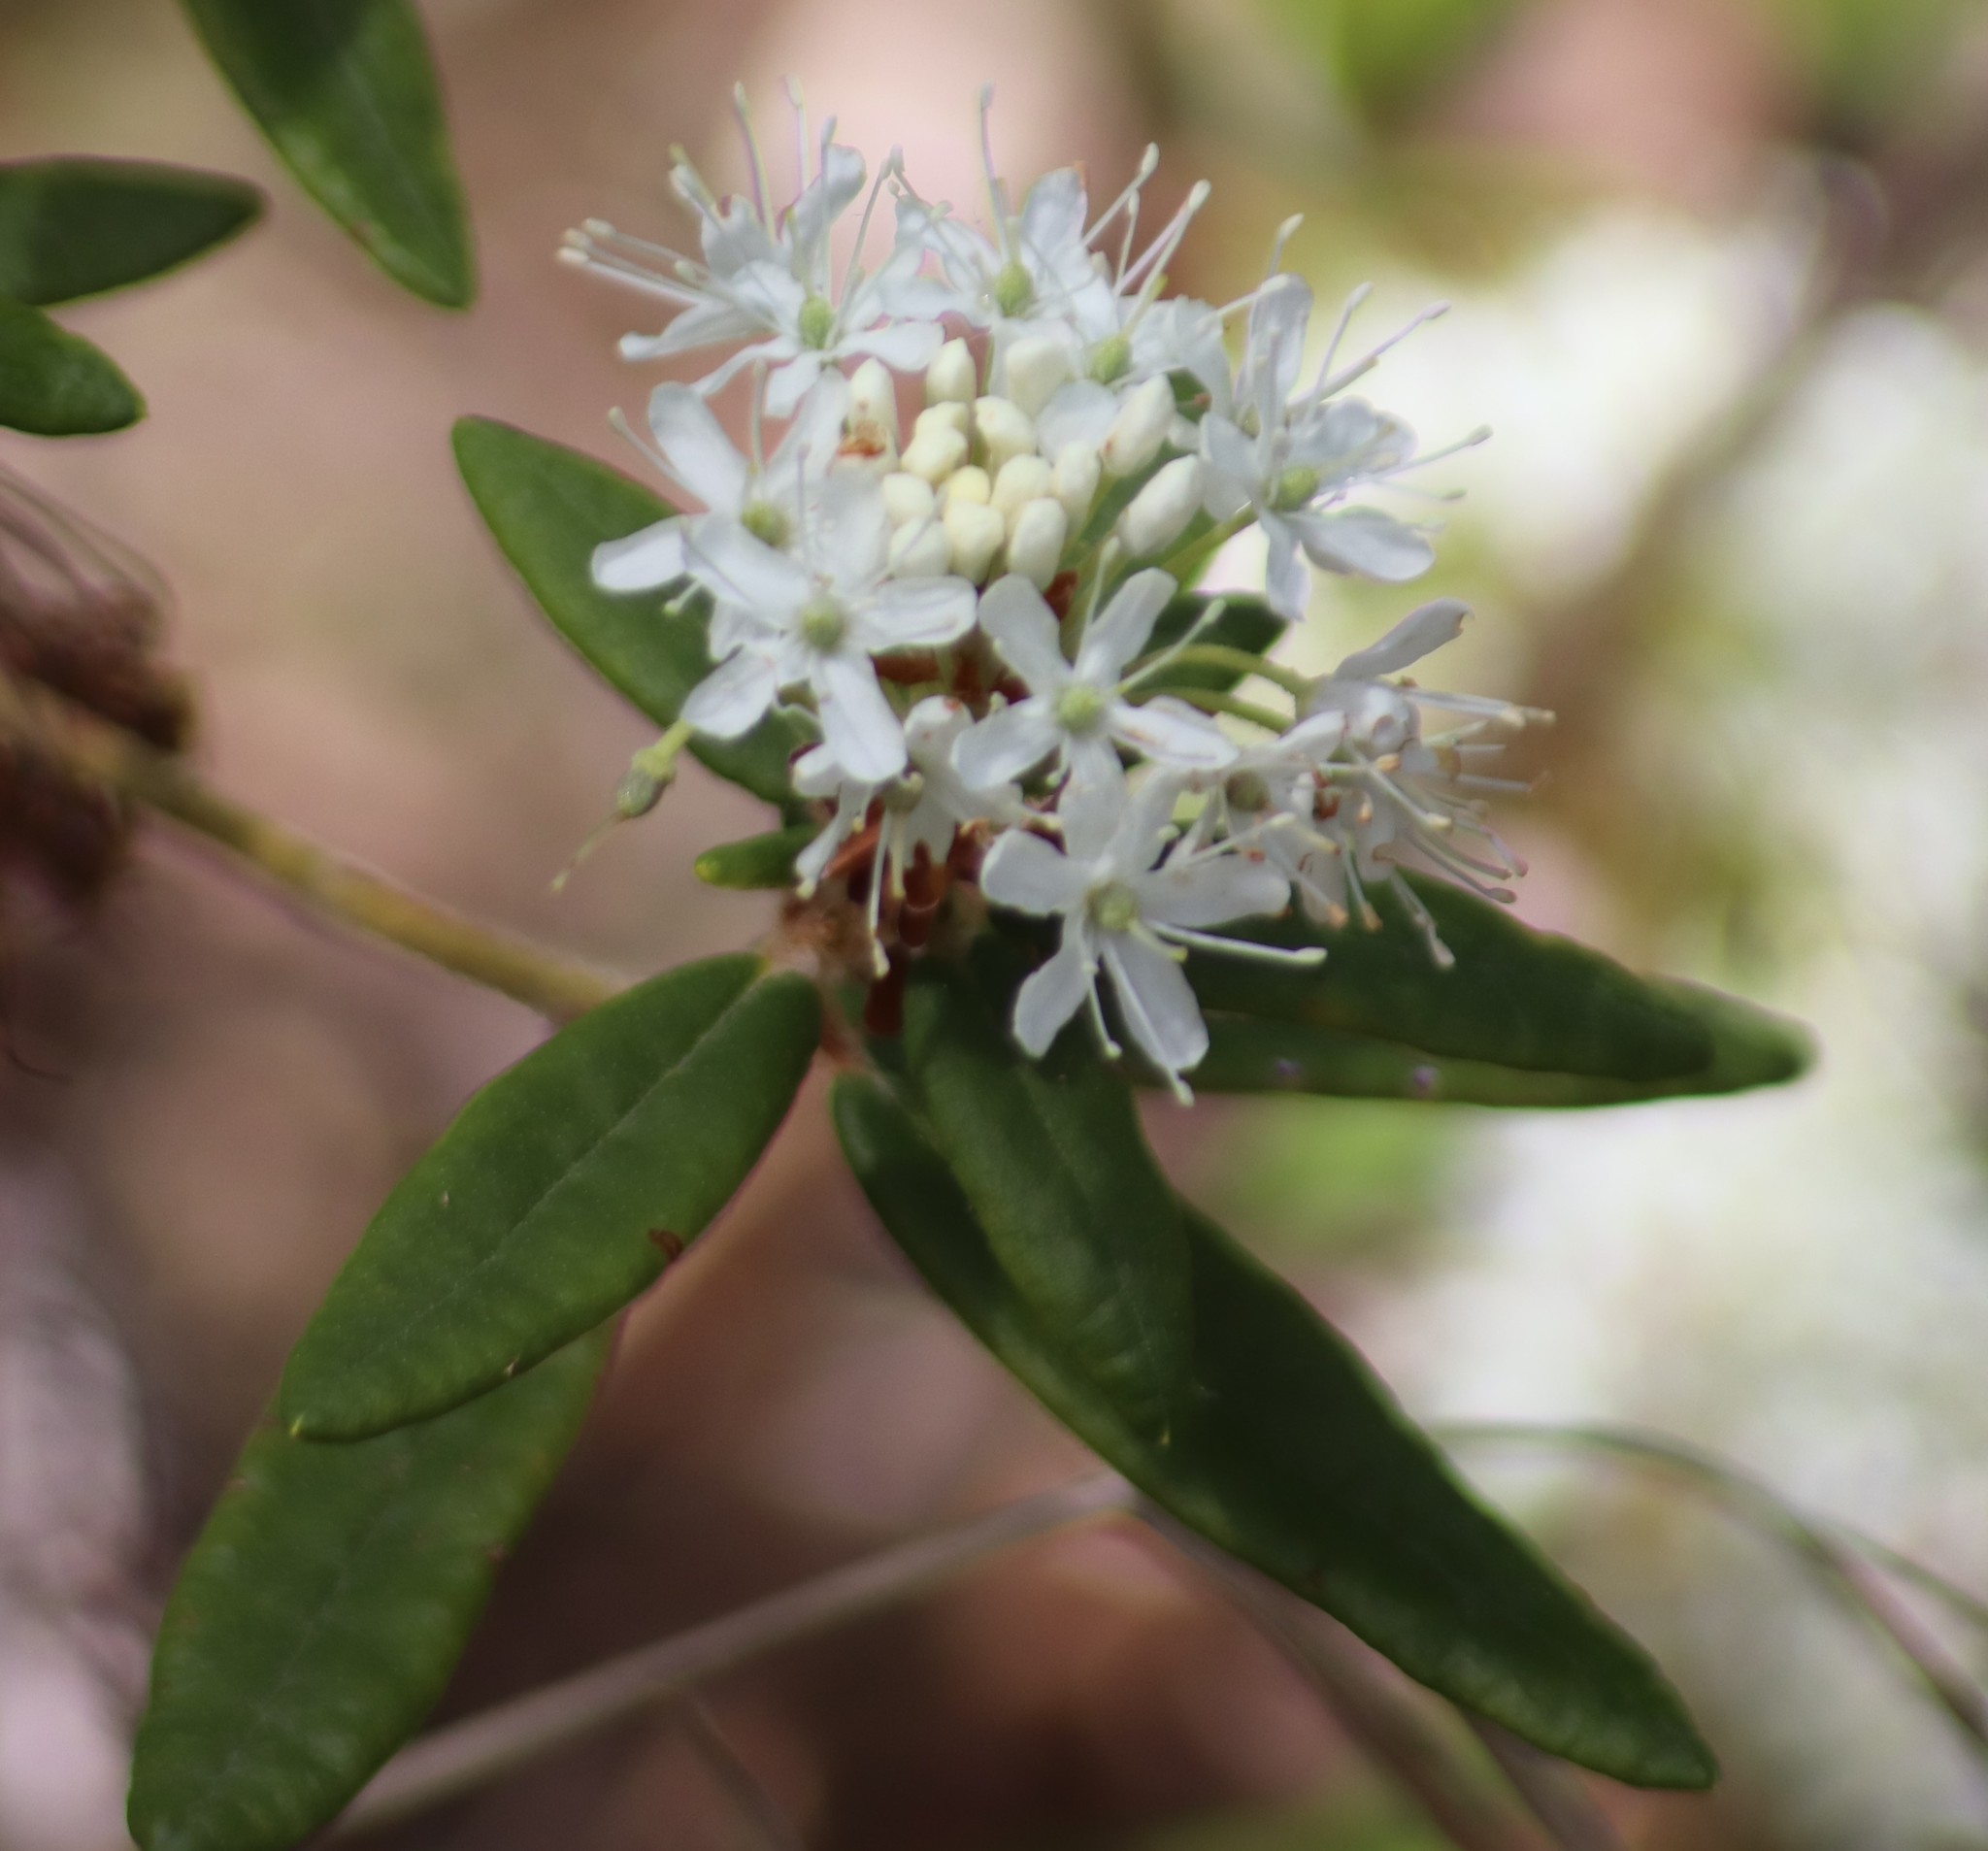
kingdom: Plantae
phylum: Tracheophyta
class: Magnoliopsida
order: Ericales
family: Ericaceae
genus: Rhododendron
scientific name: Rhododendron groenlandicum
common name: Bog labrador tea
